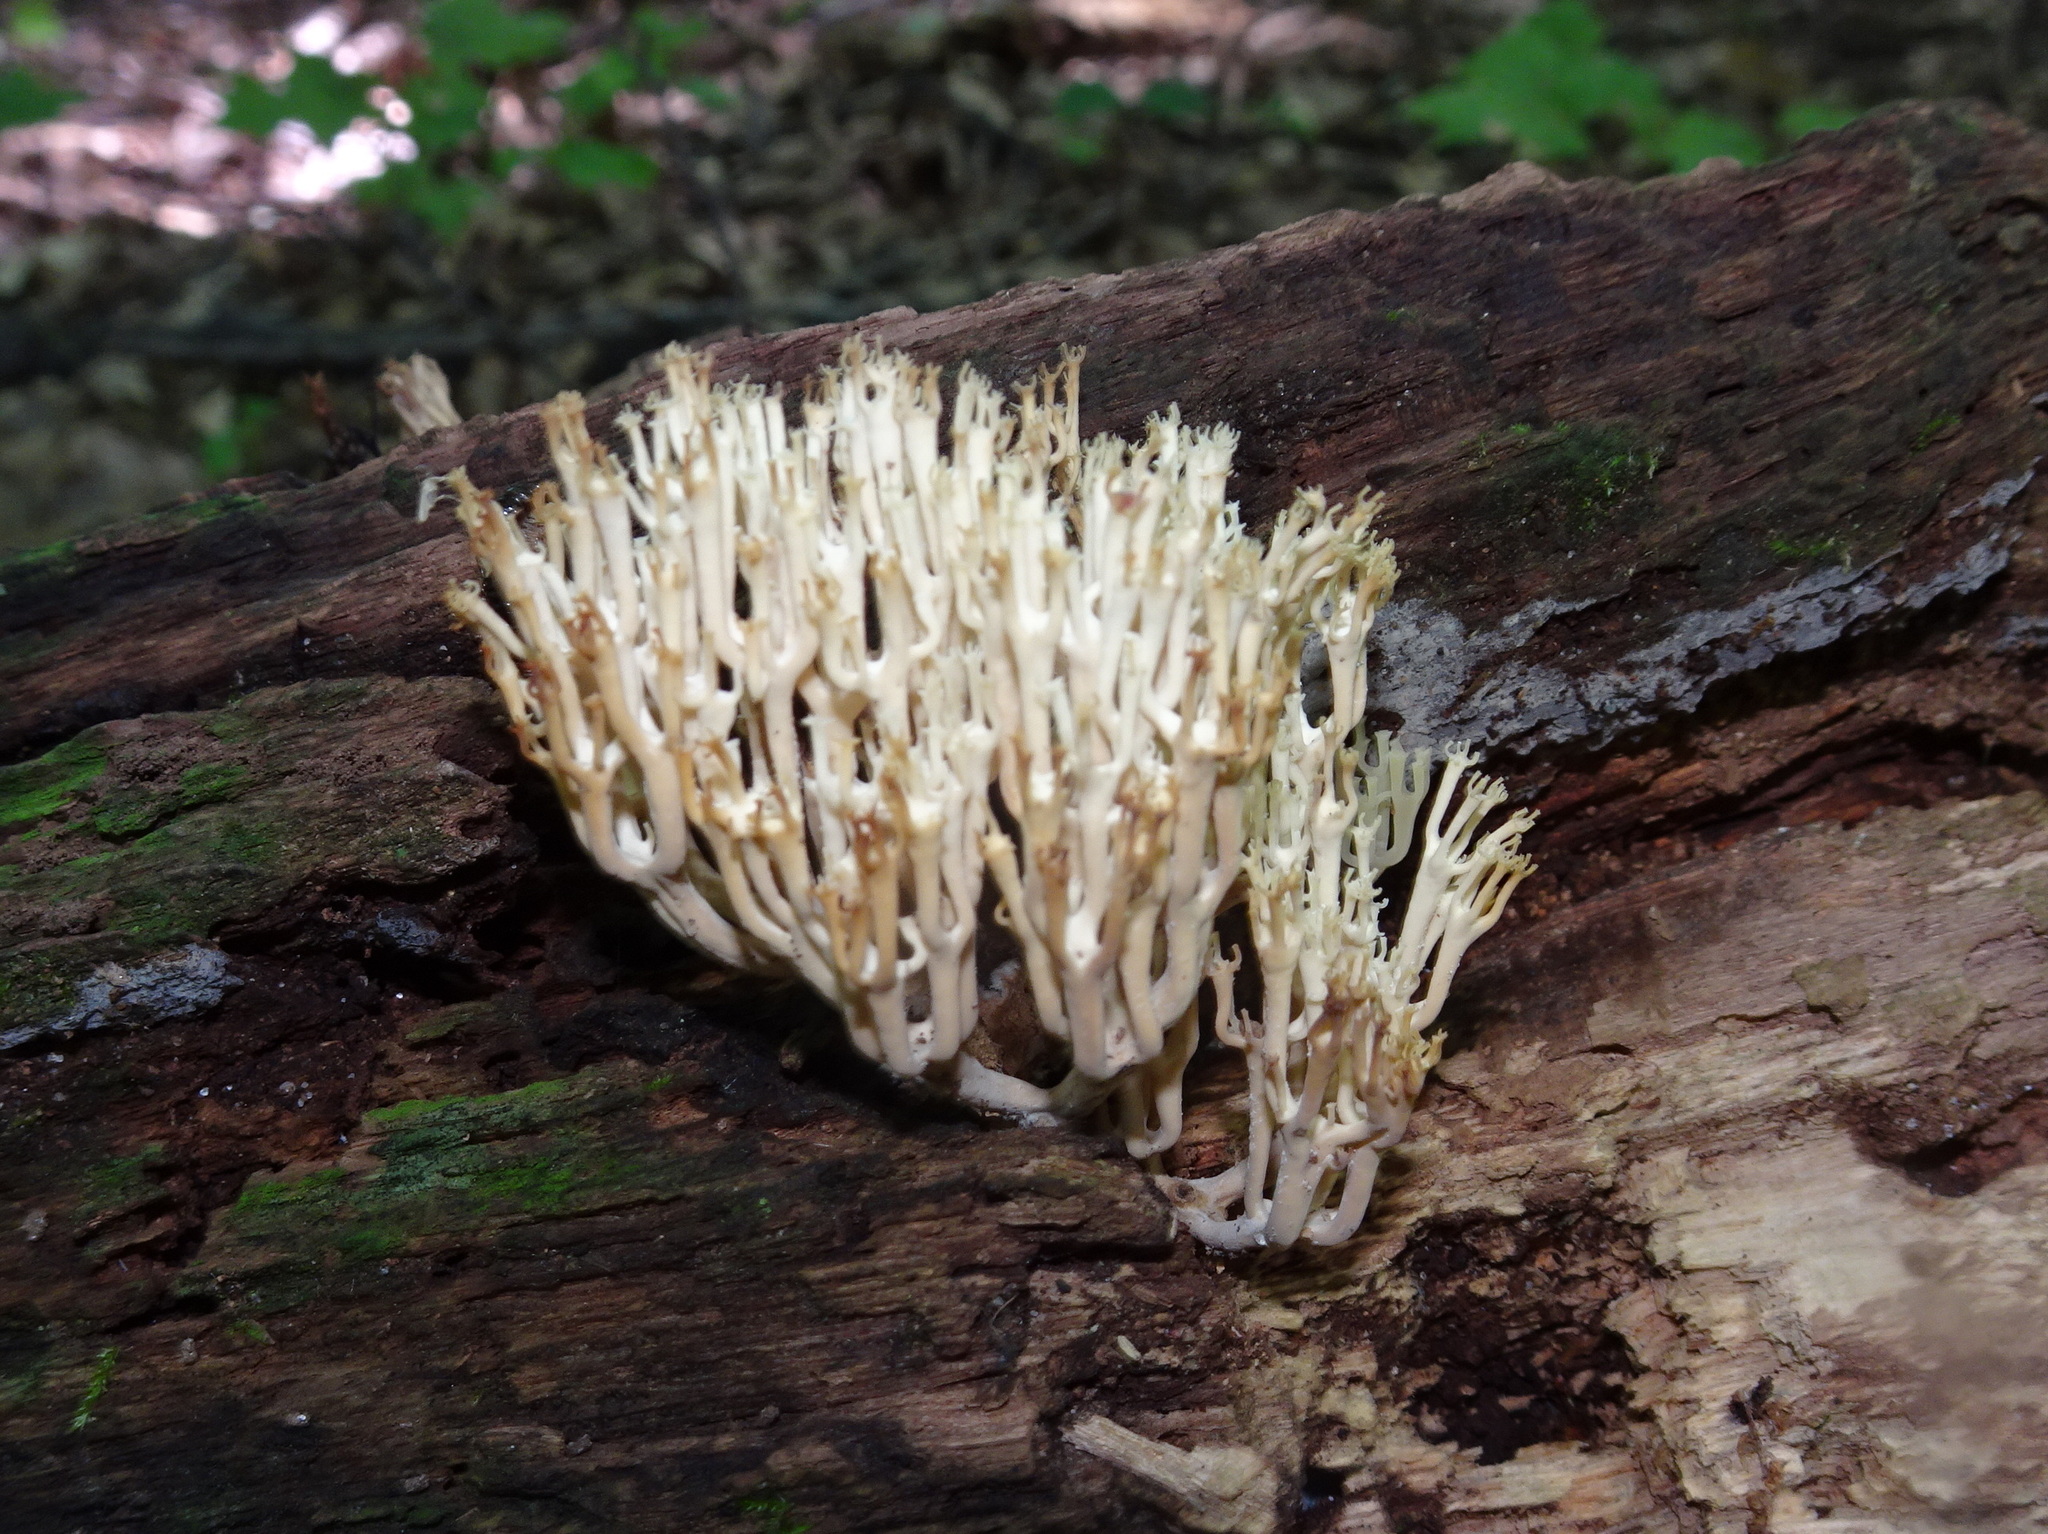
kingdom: Fungi
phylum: Basidiomycota
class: Agaricomycetes
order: Russulales
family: Auriscalpiaceae
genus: Artomyces
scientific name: Artomyces pyxidatus
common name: Crown-tipped coral fungus
